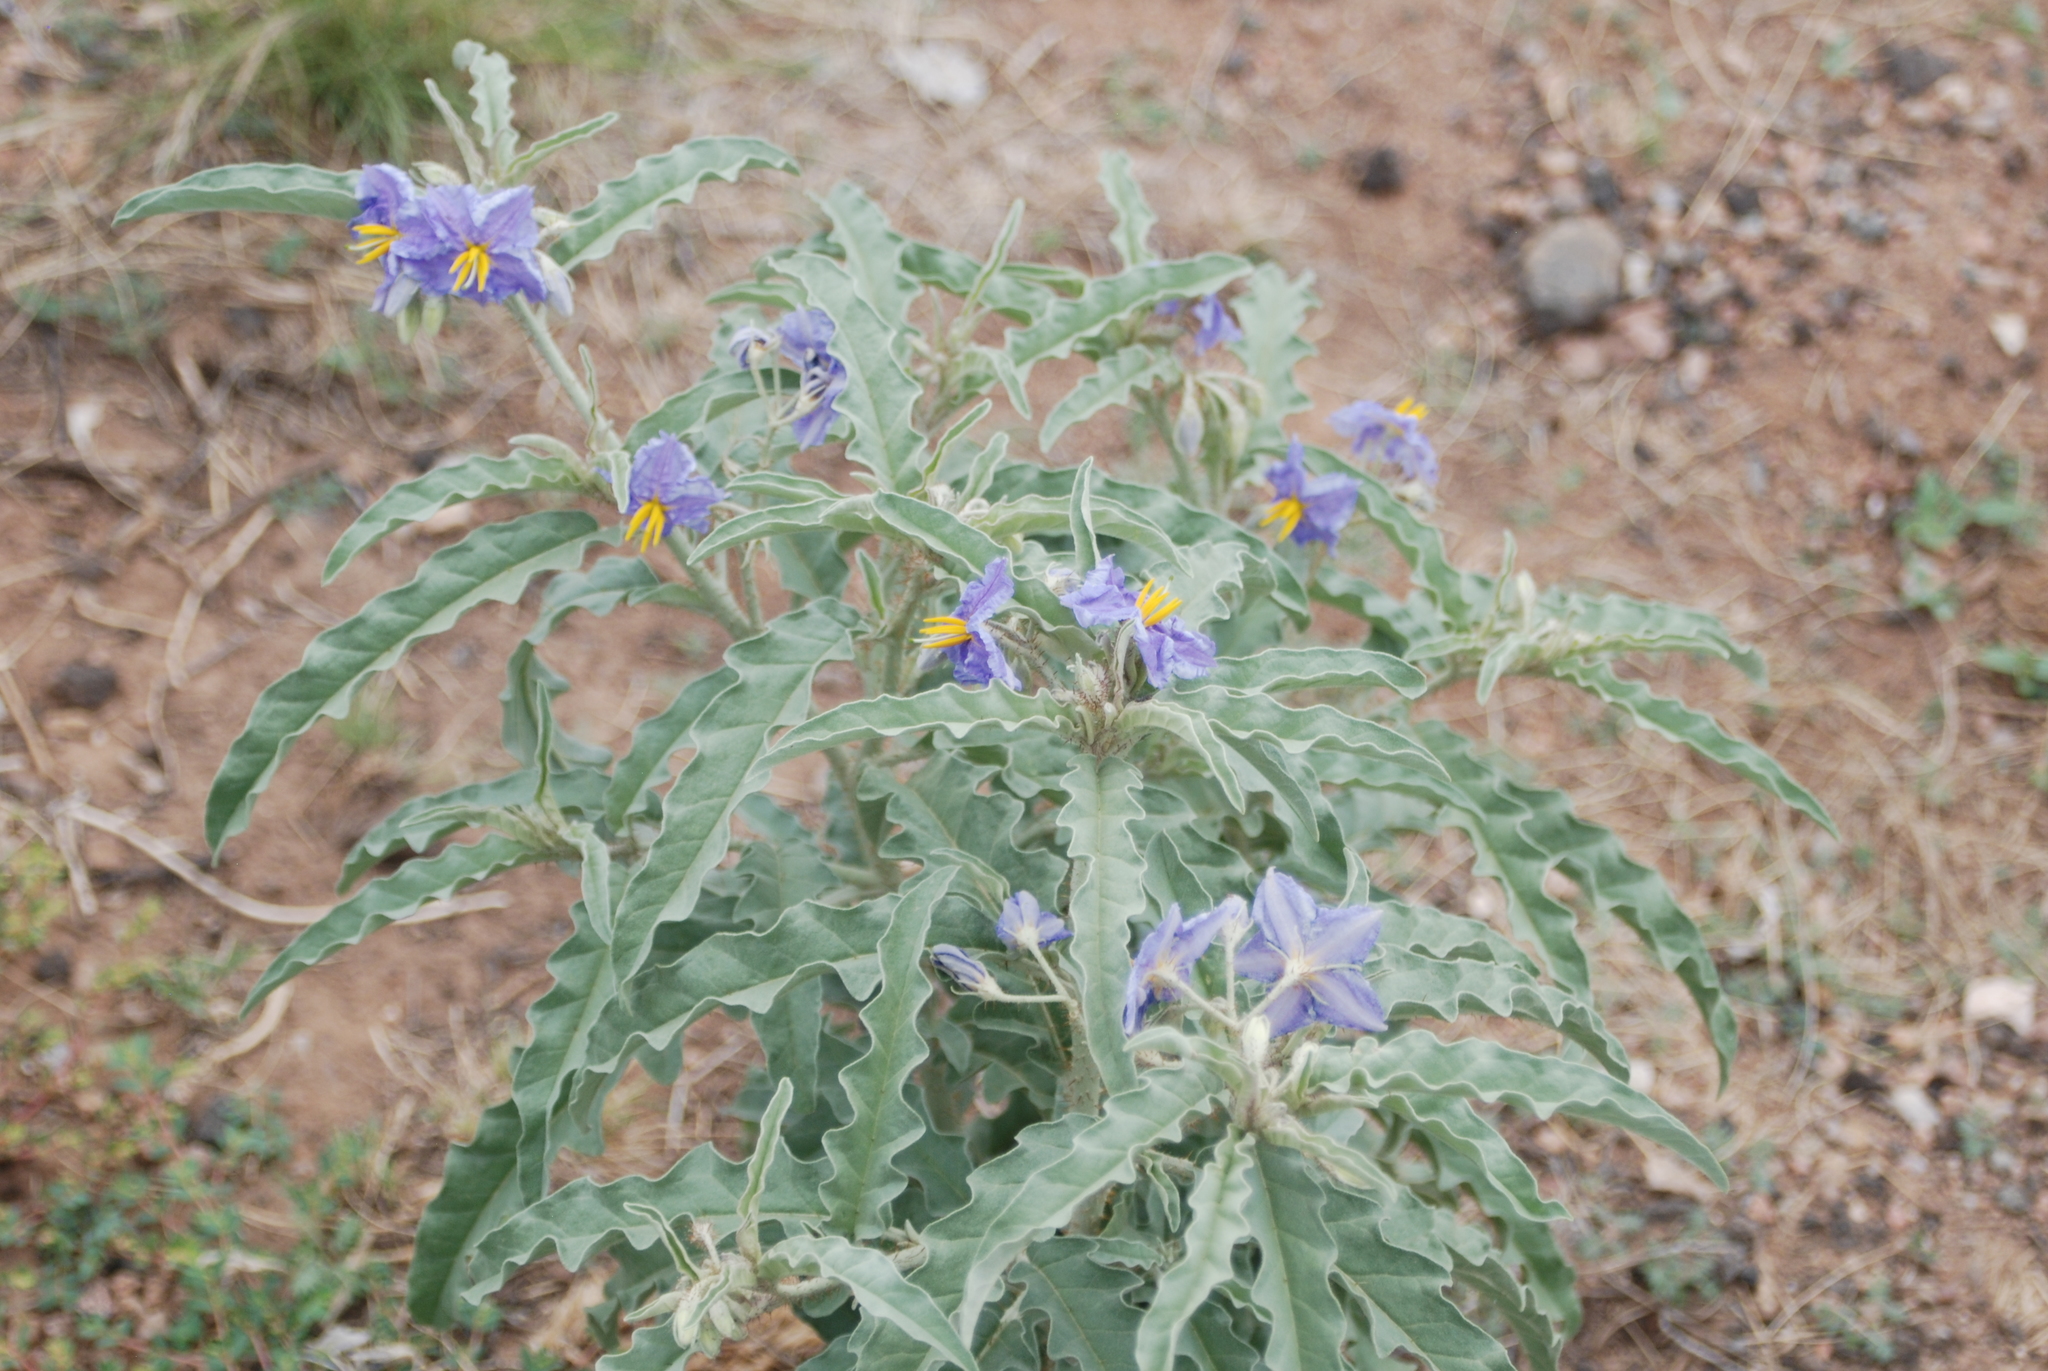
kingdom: Plantae
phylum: Tracheophyta
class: Magnoliopsida
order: Solanales
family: Solanaceae
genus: Solanum
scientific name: Solanum elaeagnifolium
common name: Silverleaf nightshade
